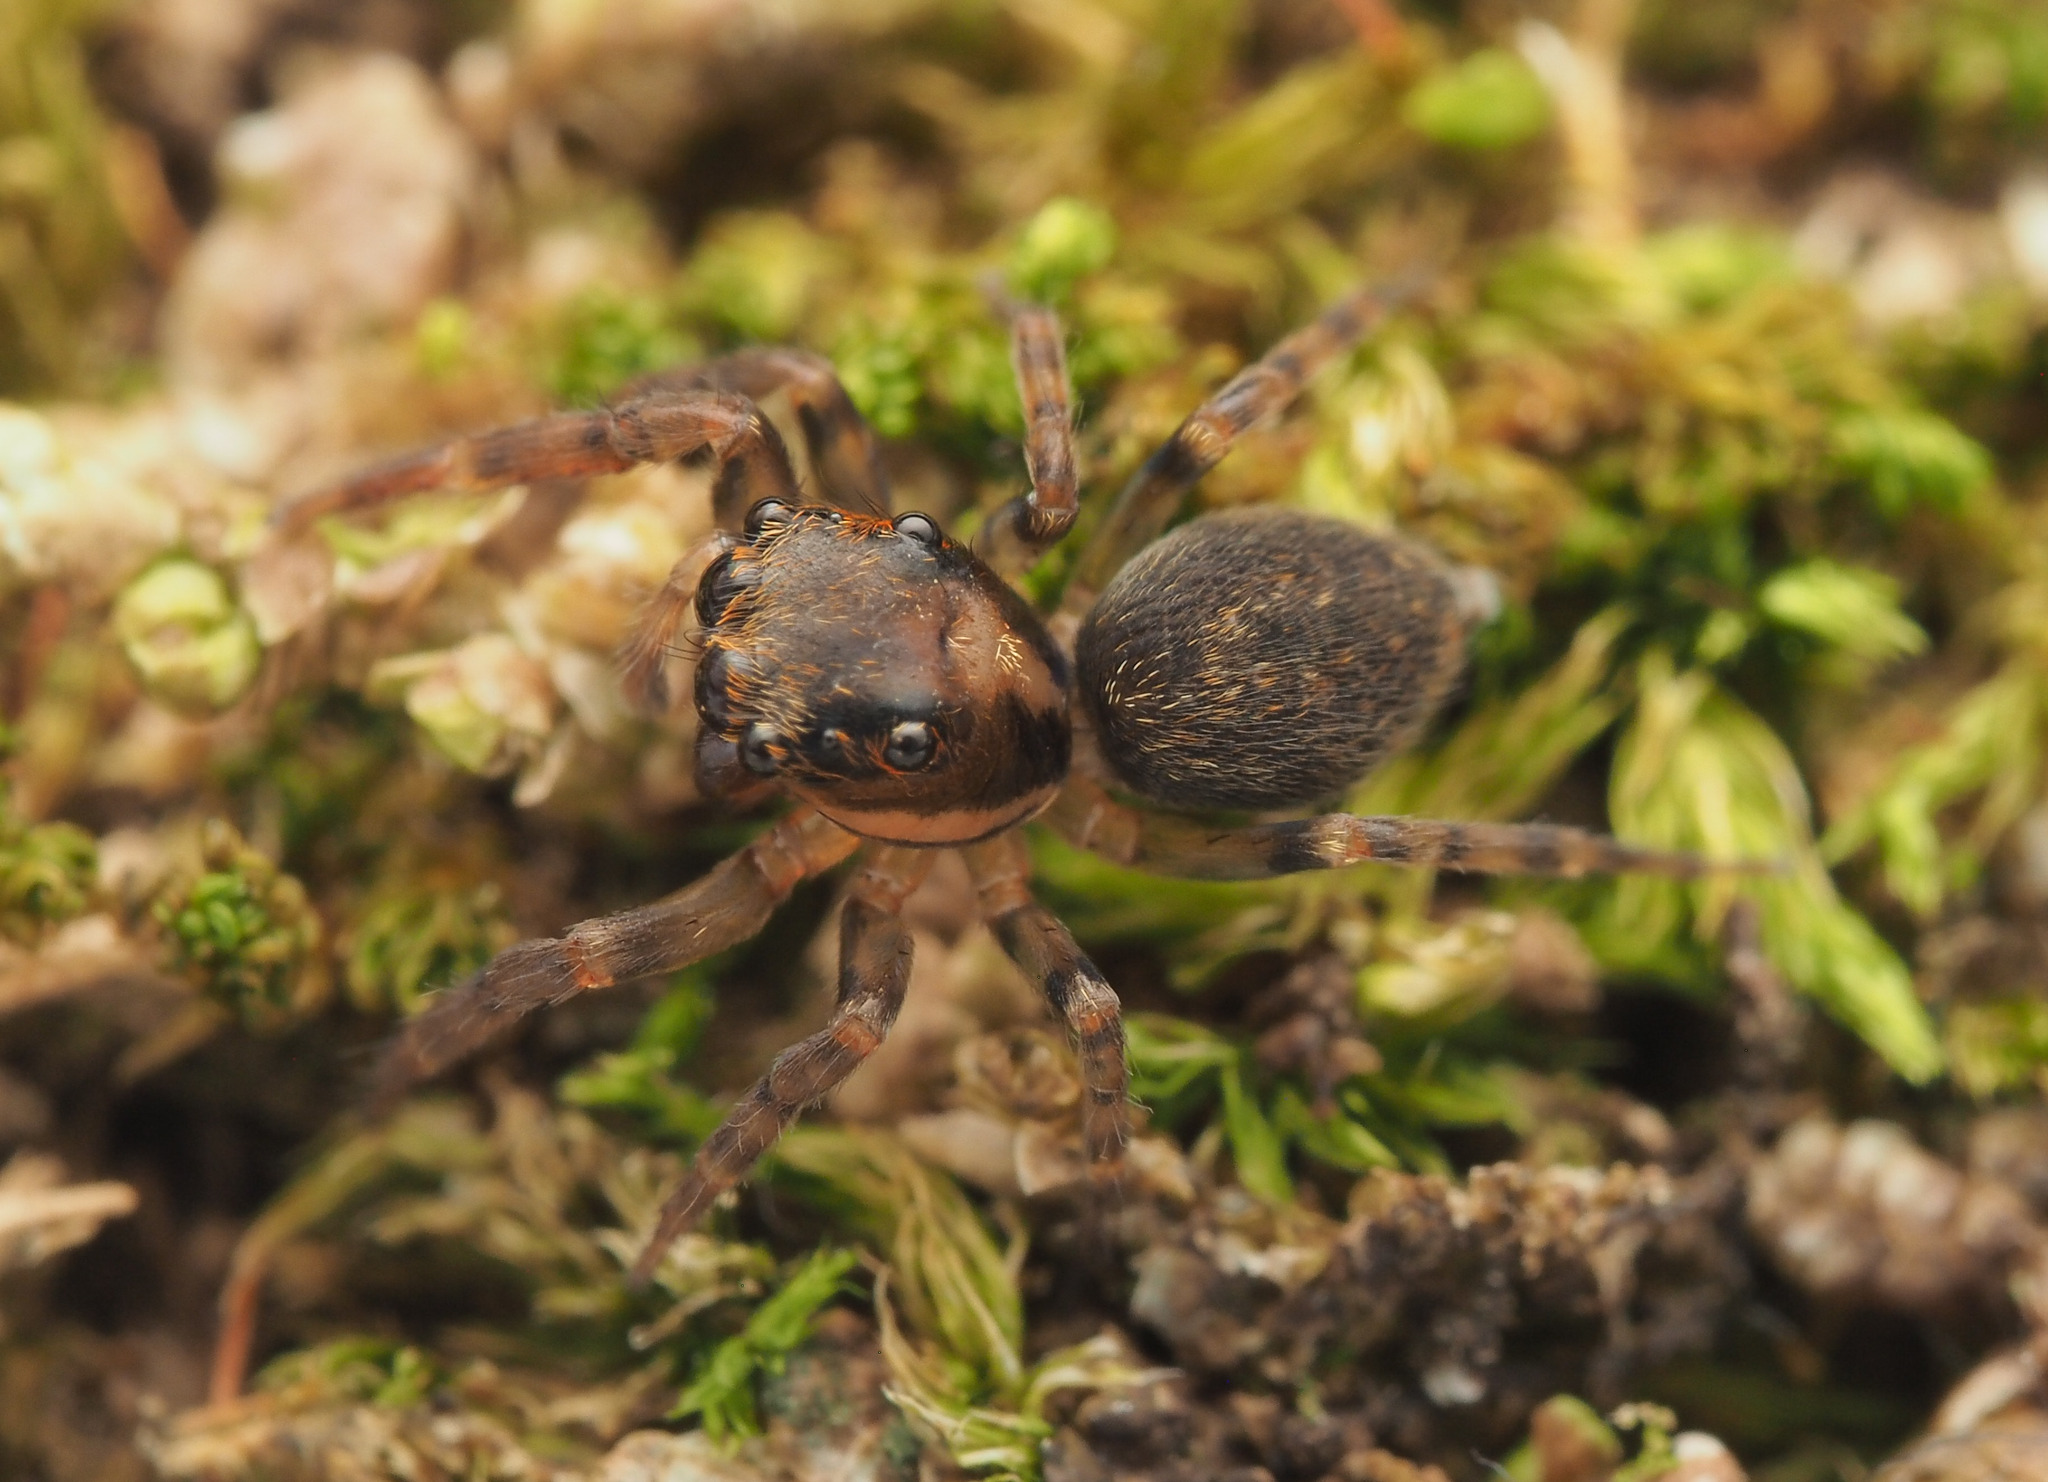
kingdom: Animalia
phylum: Arthropoda
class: Arachnida
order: Araneae
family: Salticidae
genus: Sondra
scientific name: Sondra nepenthicola
